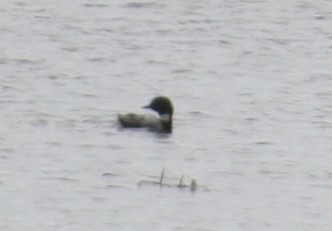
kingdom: Animalia
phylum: Chordata
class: Aves
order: Gaviiformes
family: Gaviidae
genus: Gavia
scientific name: Gavia immer
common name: Common loon
